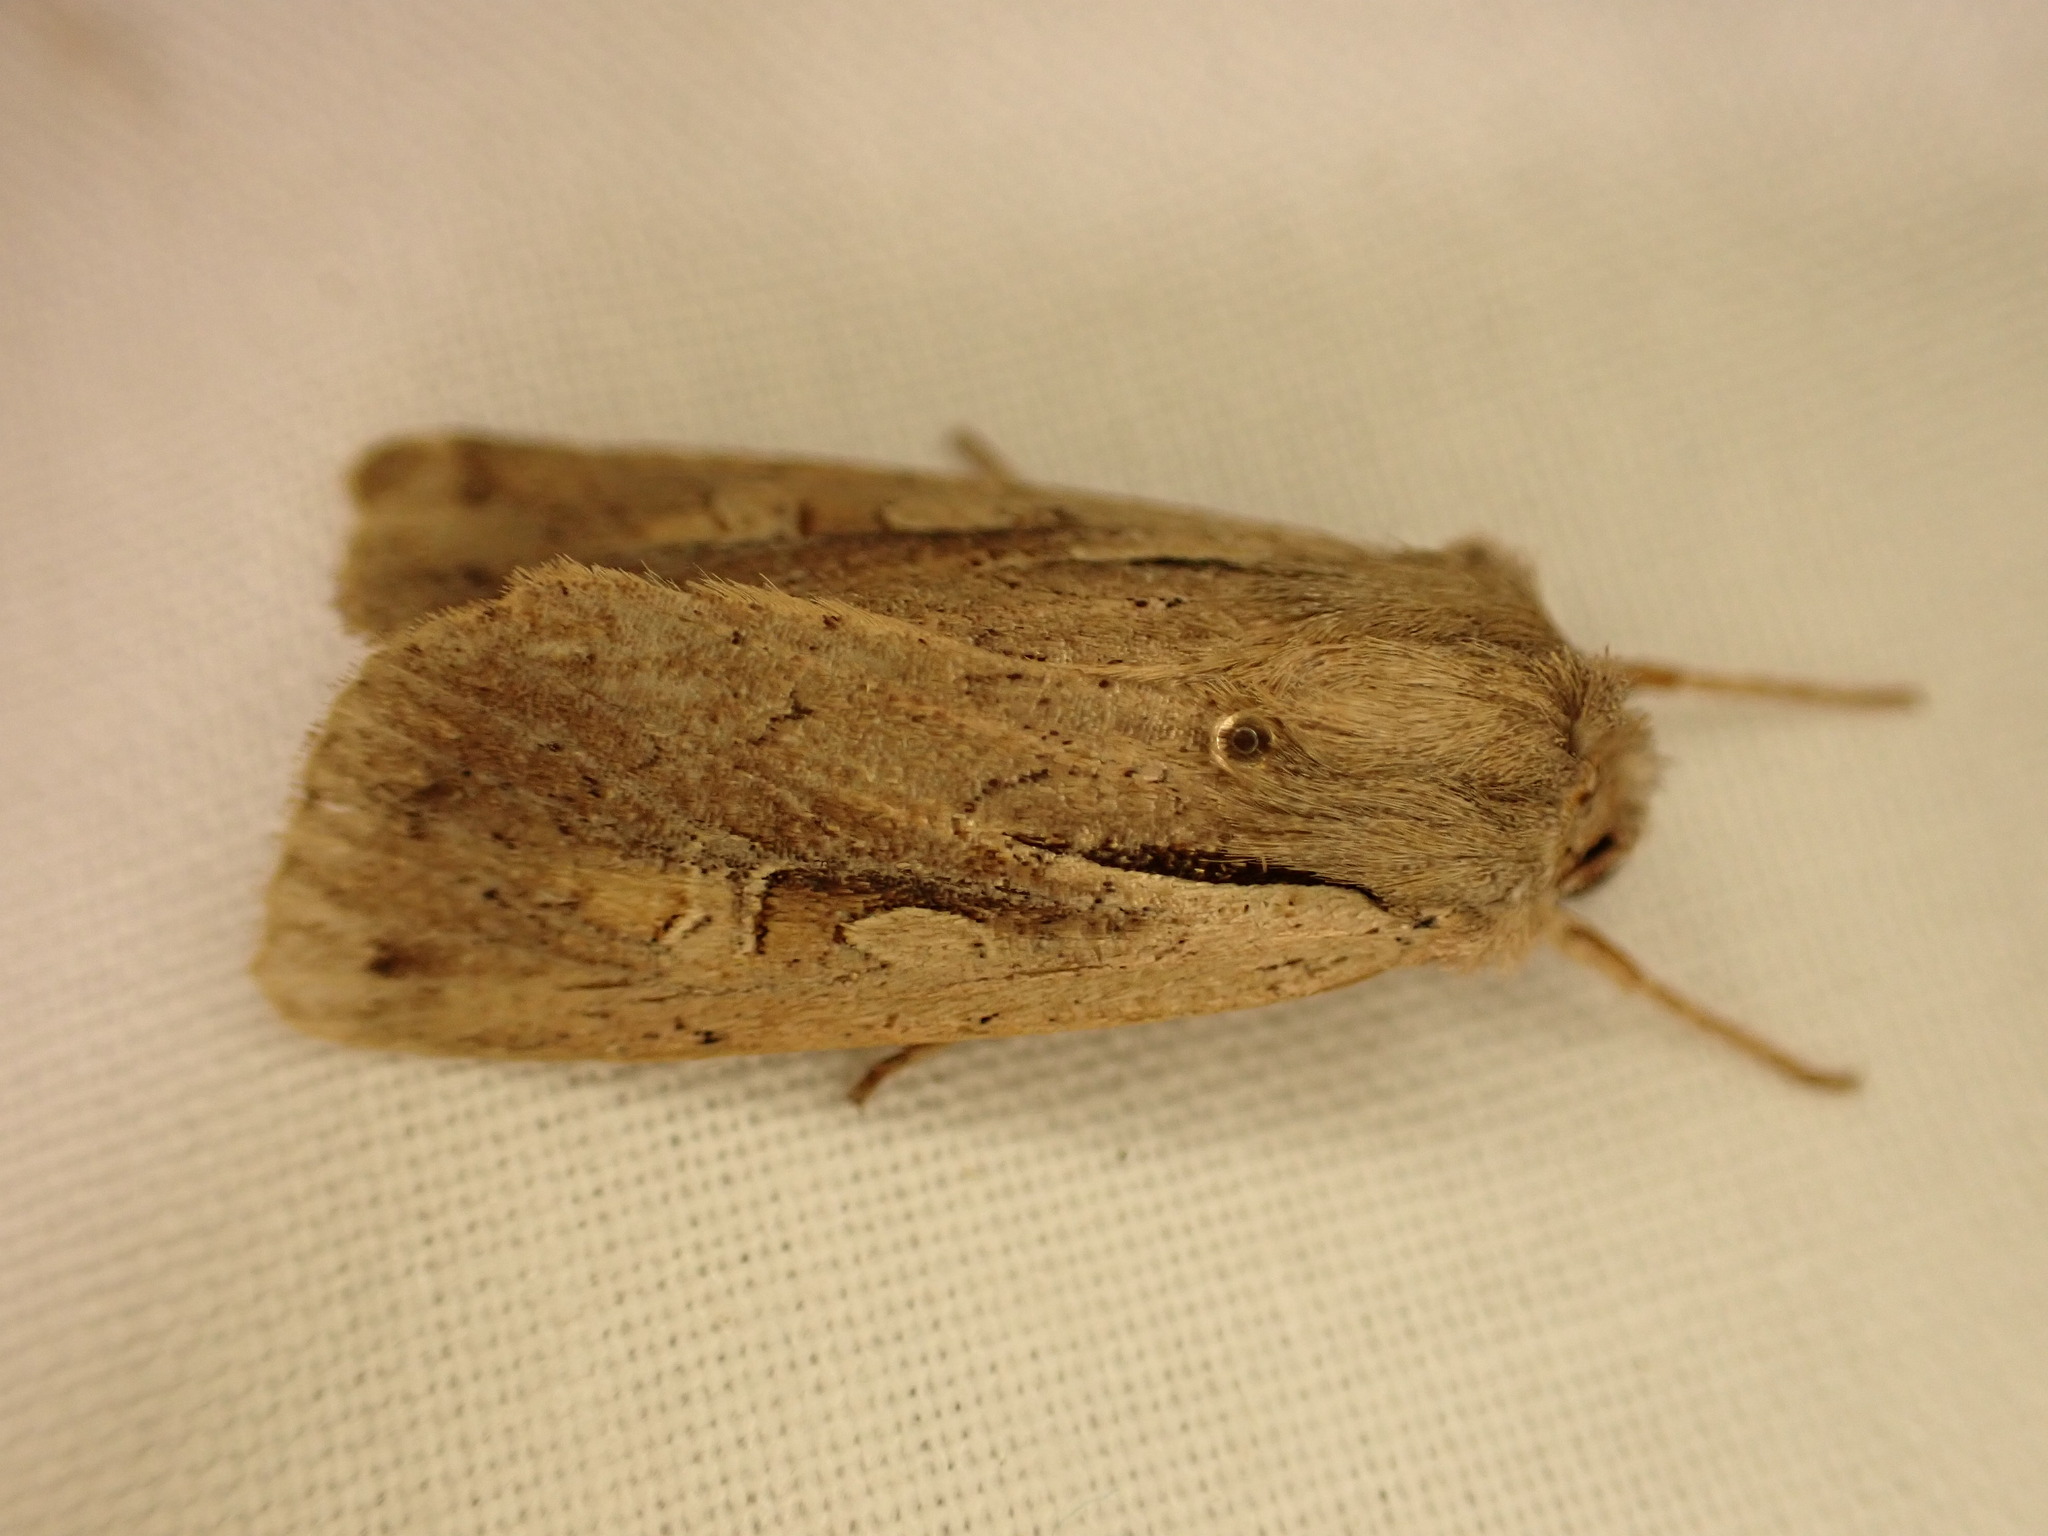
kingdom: Animalia
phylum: Arthropoda
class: Insecta
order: Lepidoptera
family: Noctuidae
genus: Ichneutica
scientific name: Ichneutica atristriga
